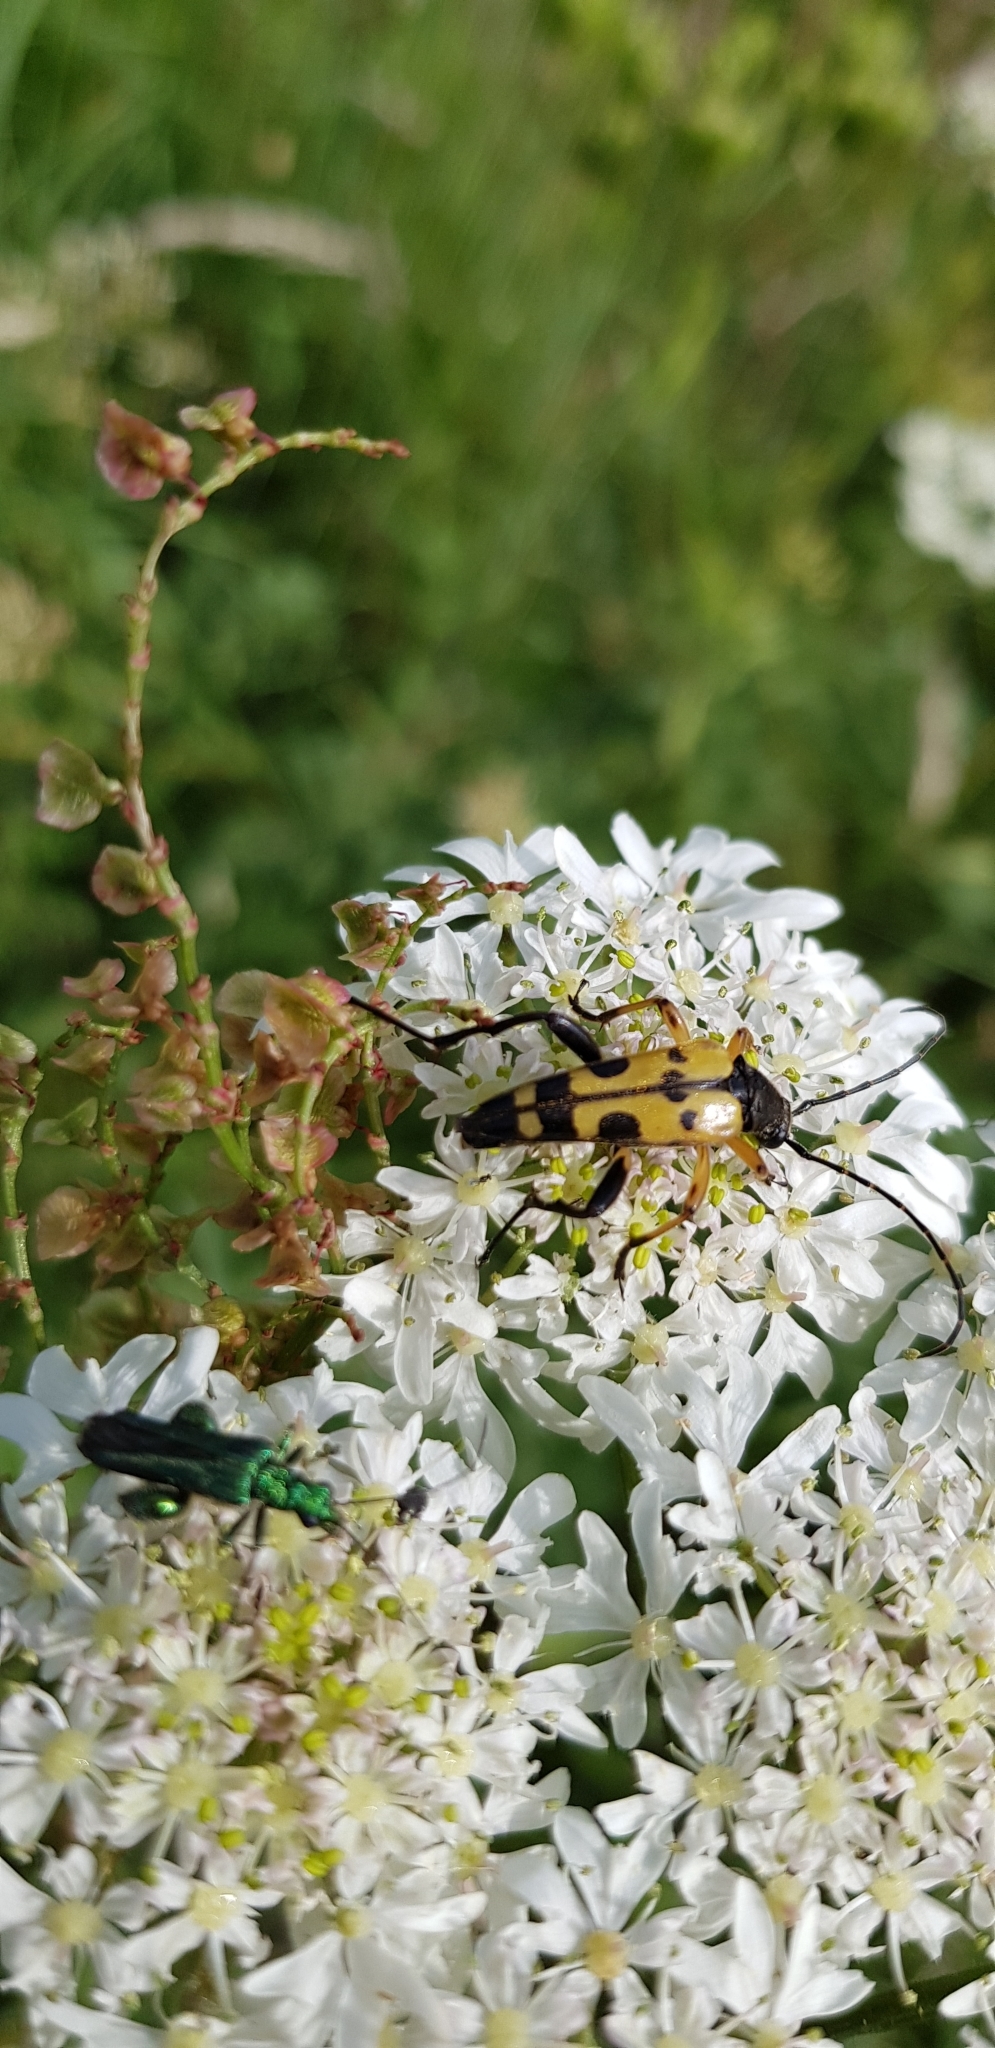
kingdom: Animalia
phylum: Arthropoda
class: Insecta
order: Coleoptera
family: Cerambycidae
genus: Rutpela
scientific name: Rutpela maculata
